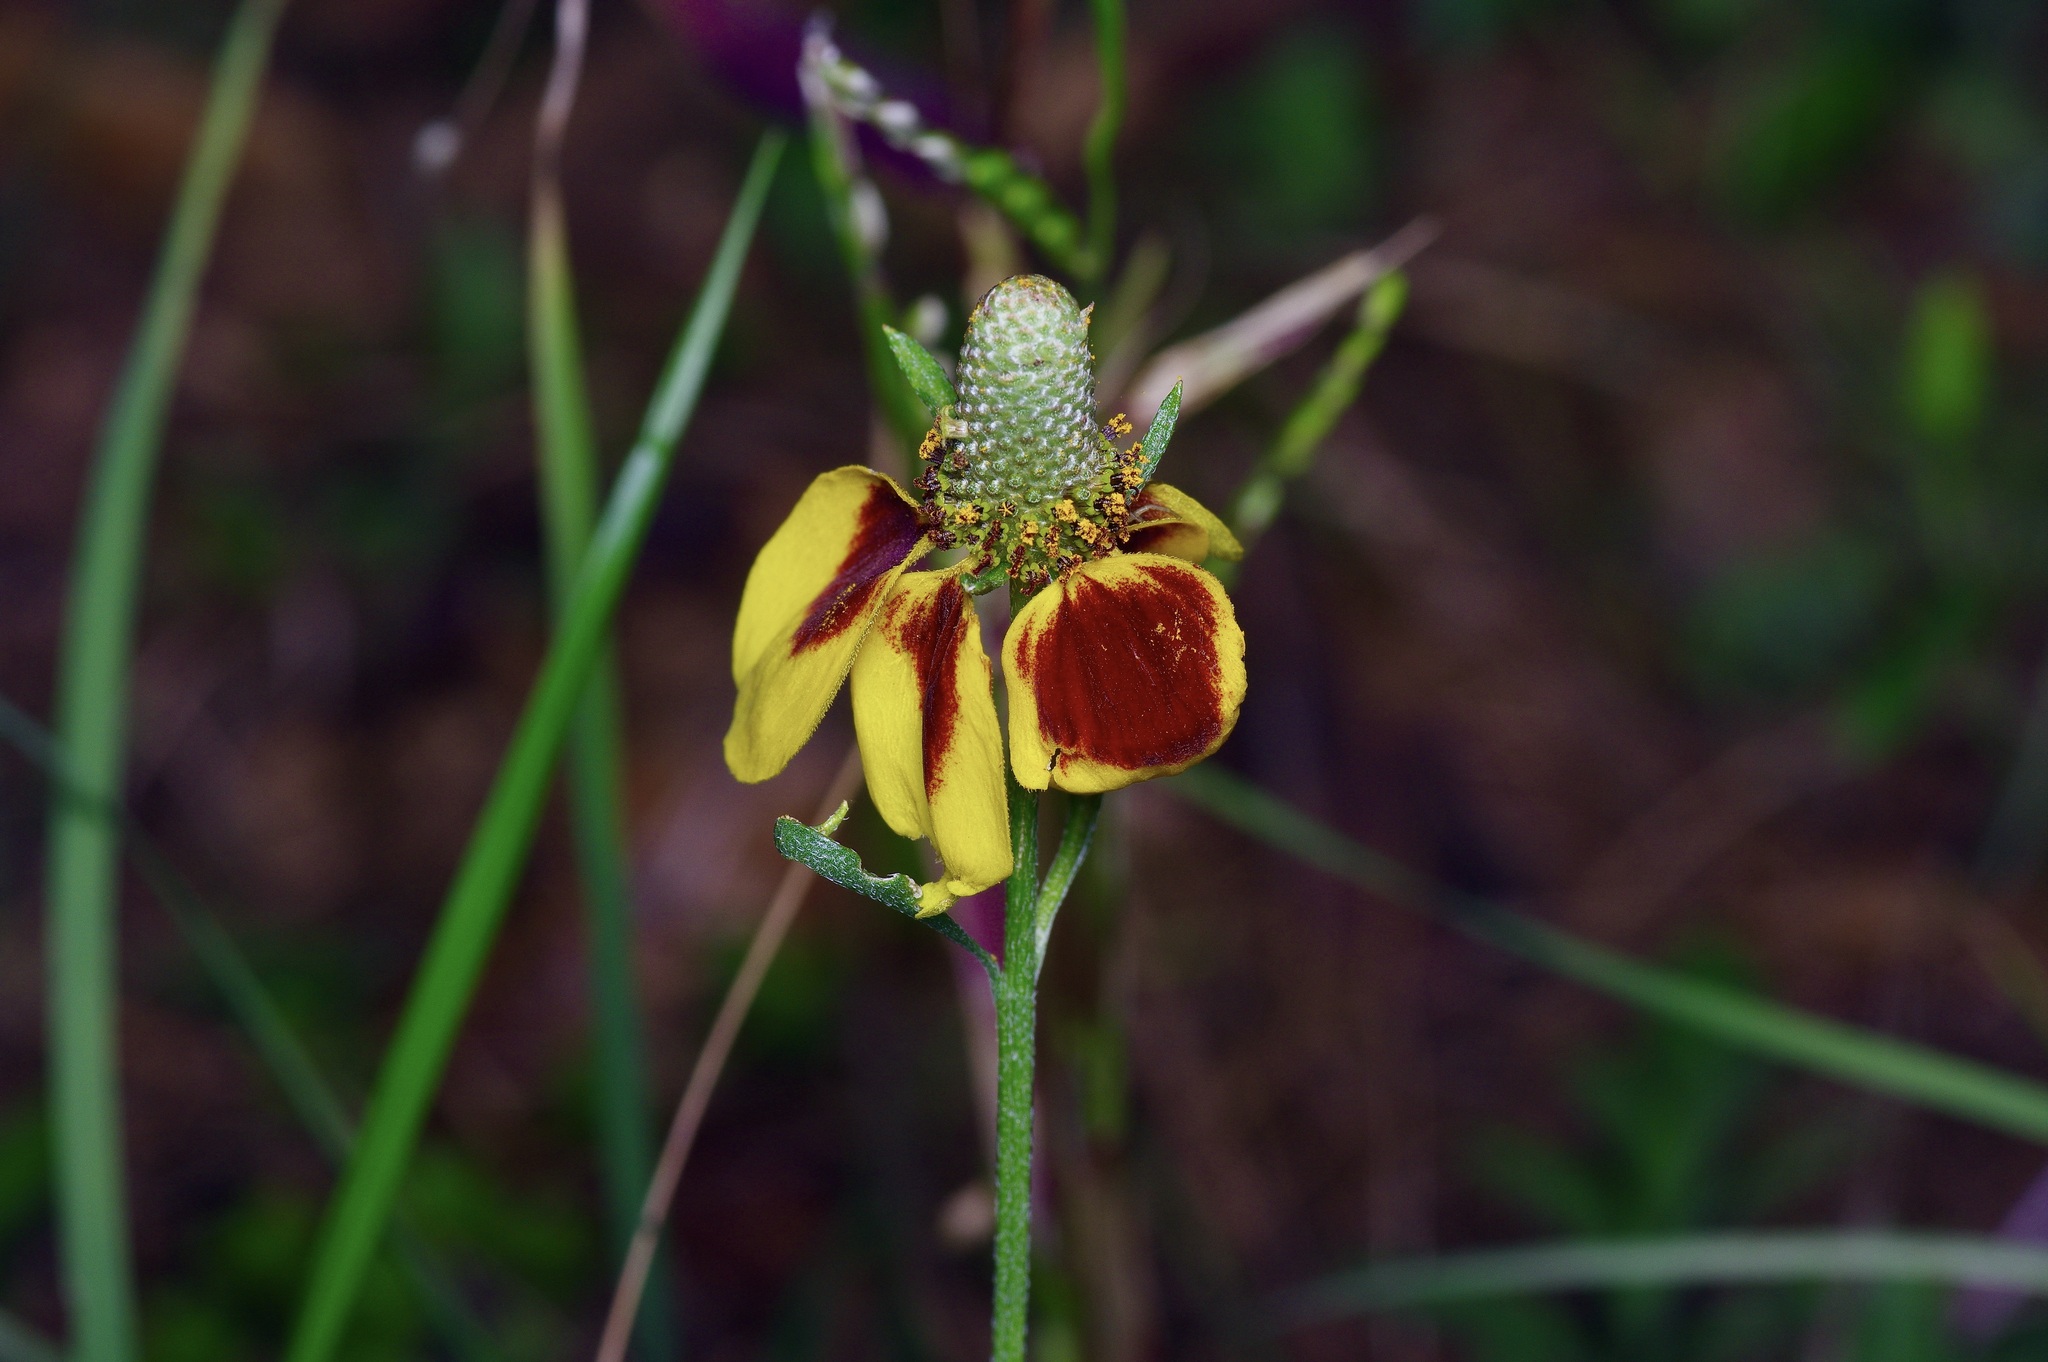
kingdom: Plantae
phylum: Tracheophyta
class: Magnoliopsida
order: Asterales
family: Asteraceae
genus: Ratibida
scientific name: Ratibida columnifera
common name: Prairie coneflower
